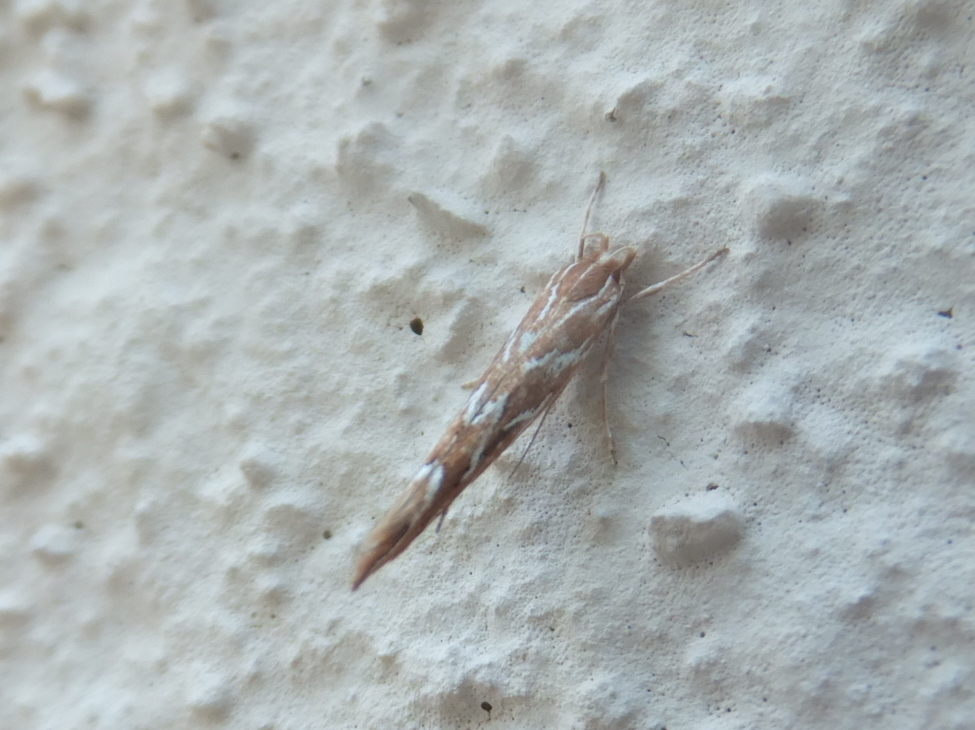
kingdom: Animalia
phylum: Arthropoda
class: Insecta
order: Lepidoptera
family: Cosmopterigidae
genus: Pyroderces
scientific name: Pyroderces argyrogrammos
